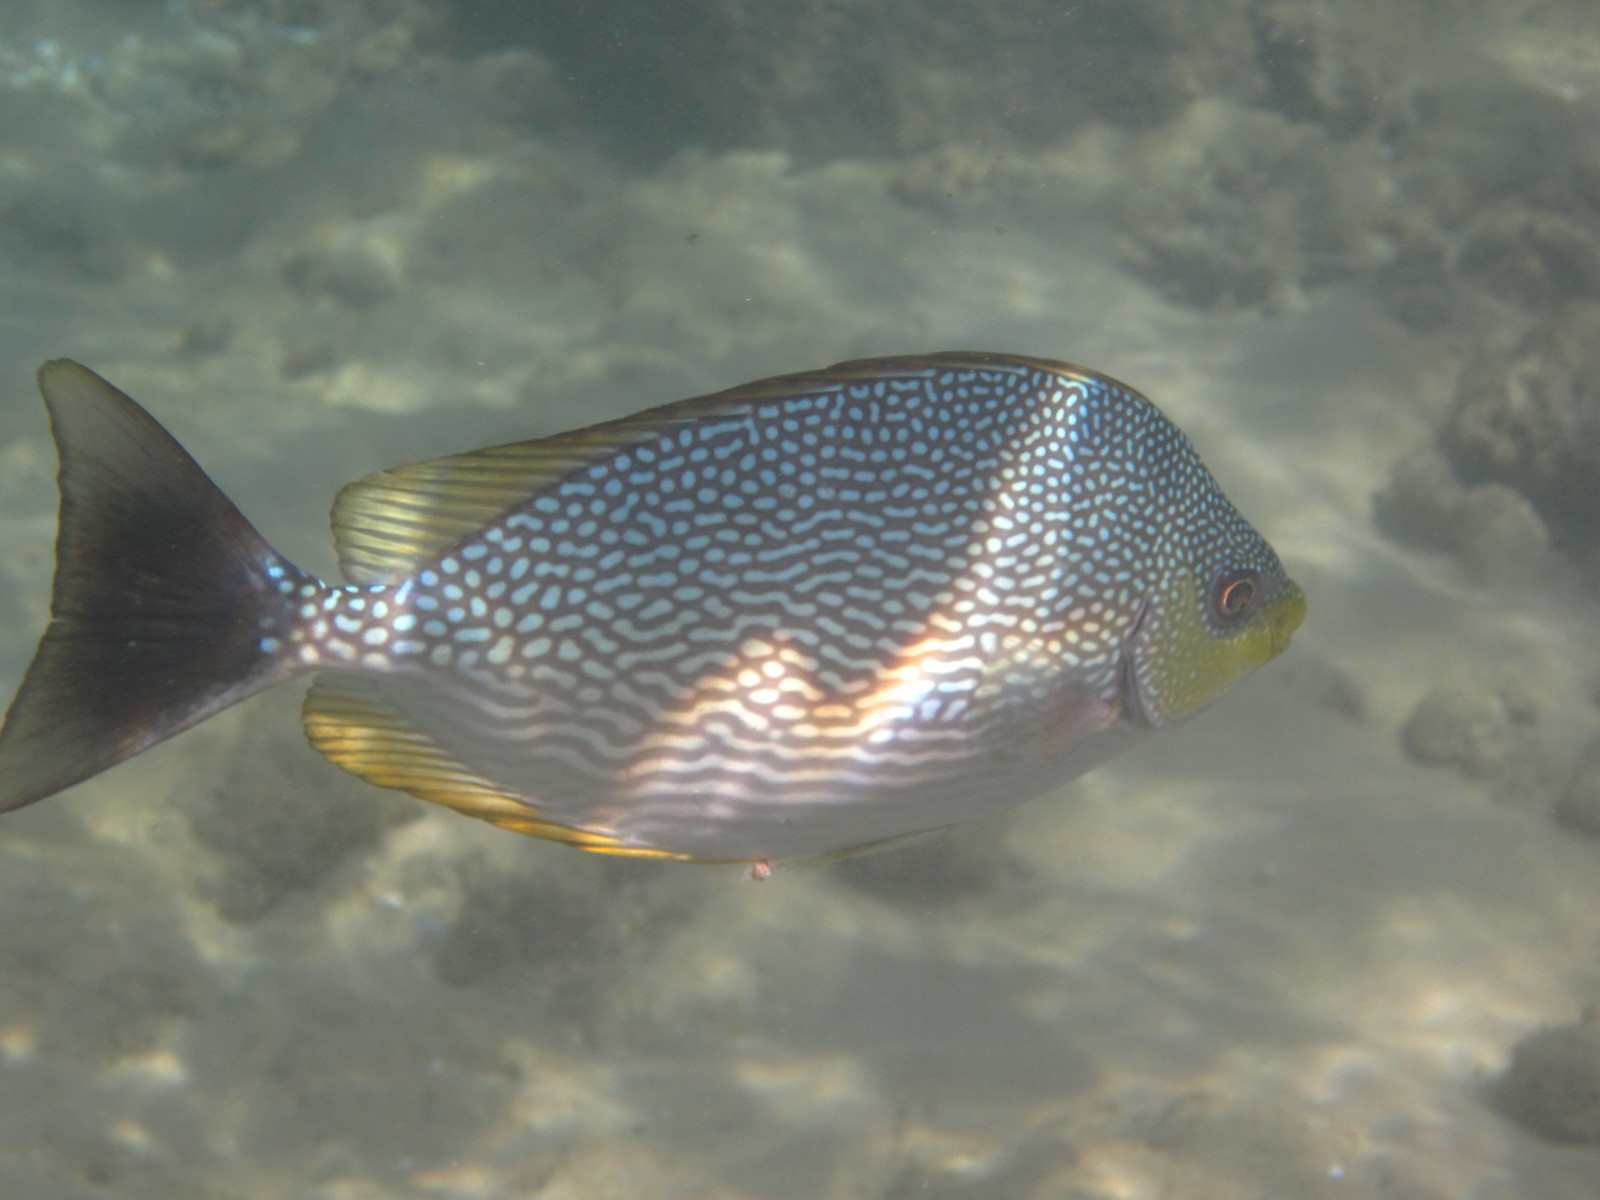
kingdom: Animalia
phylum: Chordata
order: Perciformes
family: Siganidae
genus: Siganus
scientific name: Siganus javus
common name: Java rabbitfish
